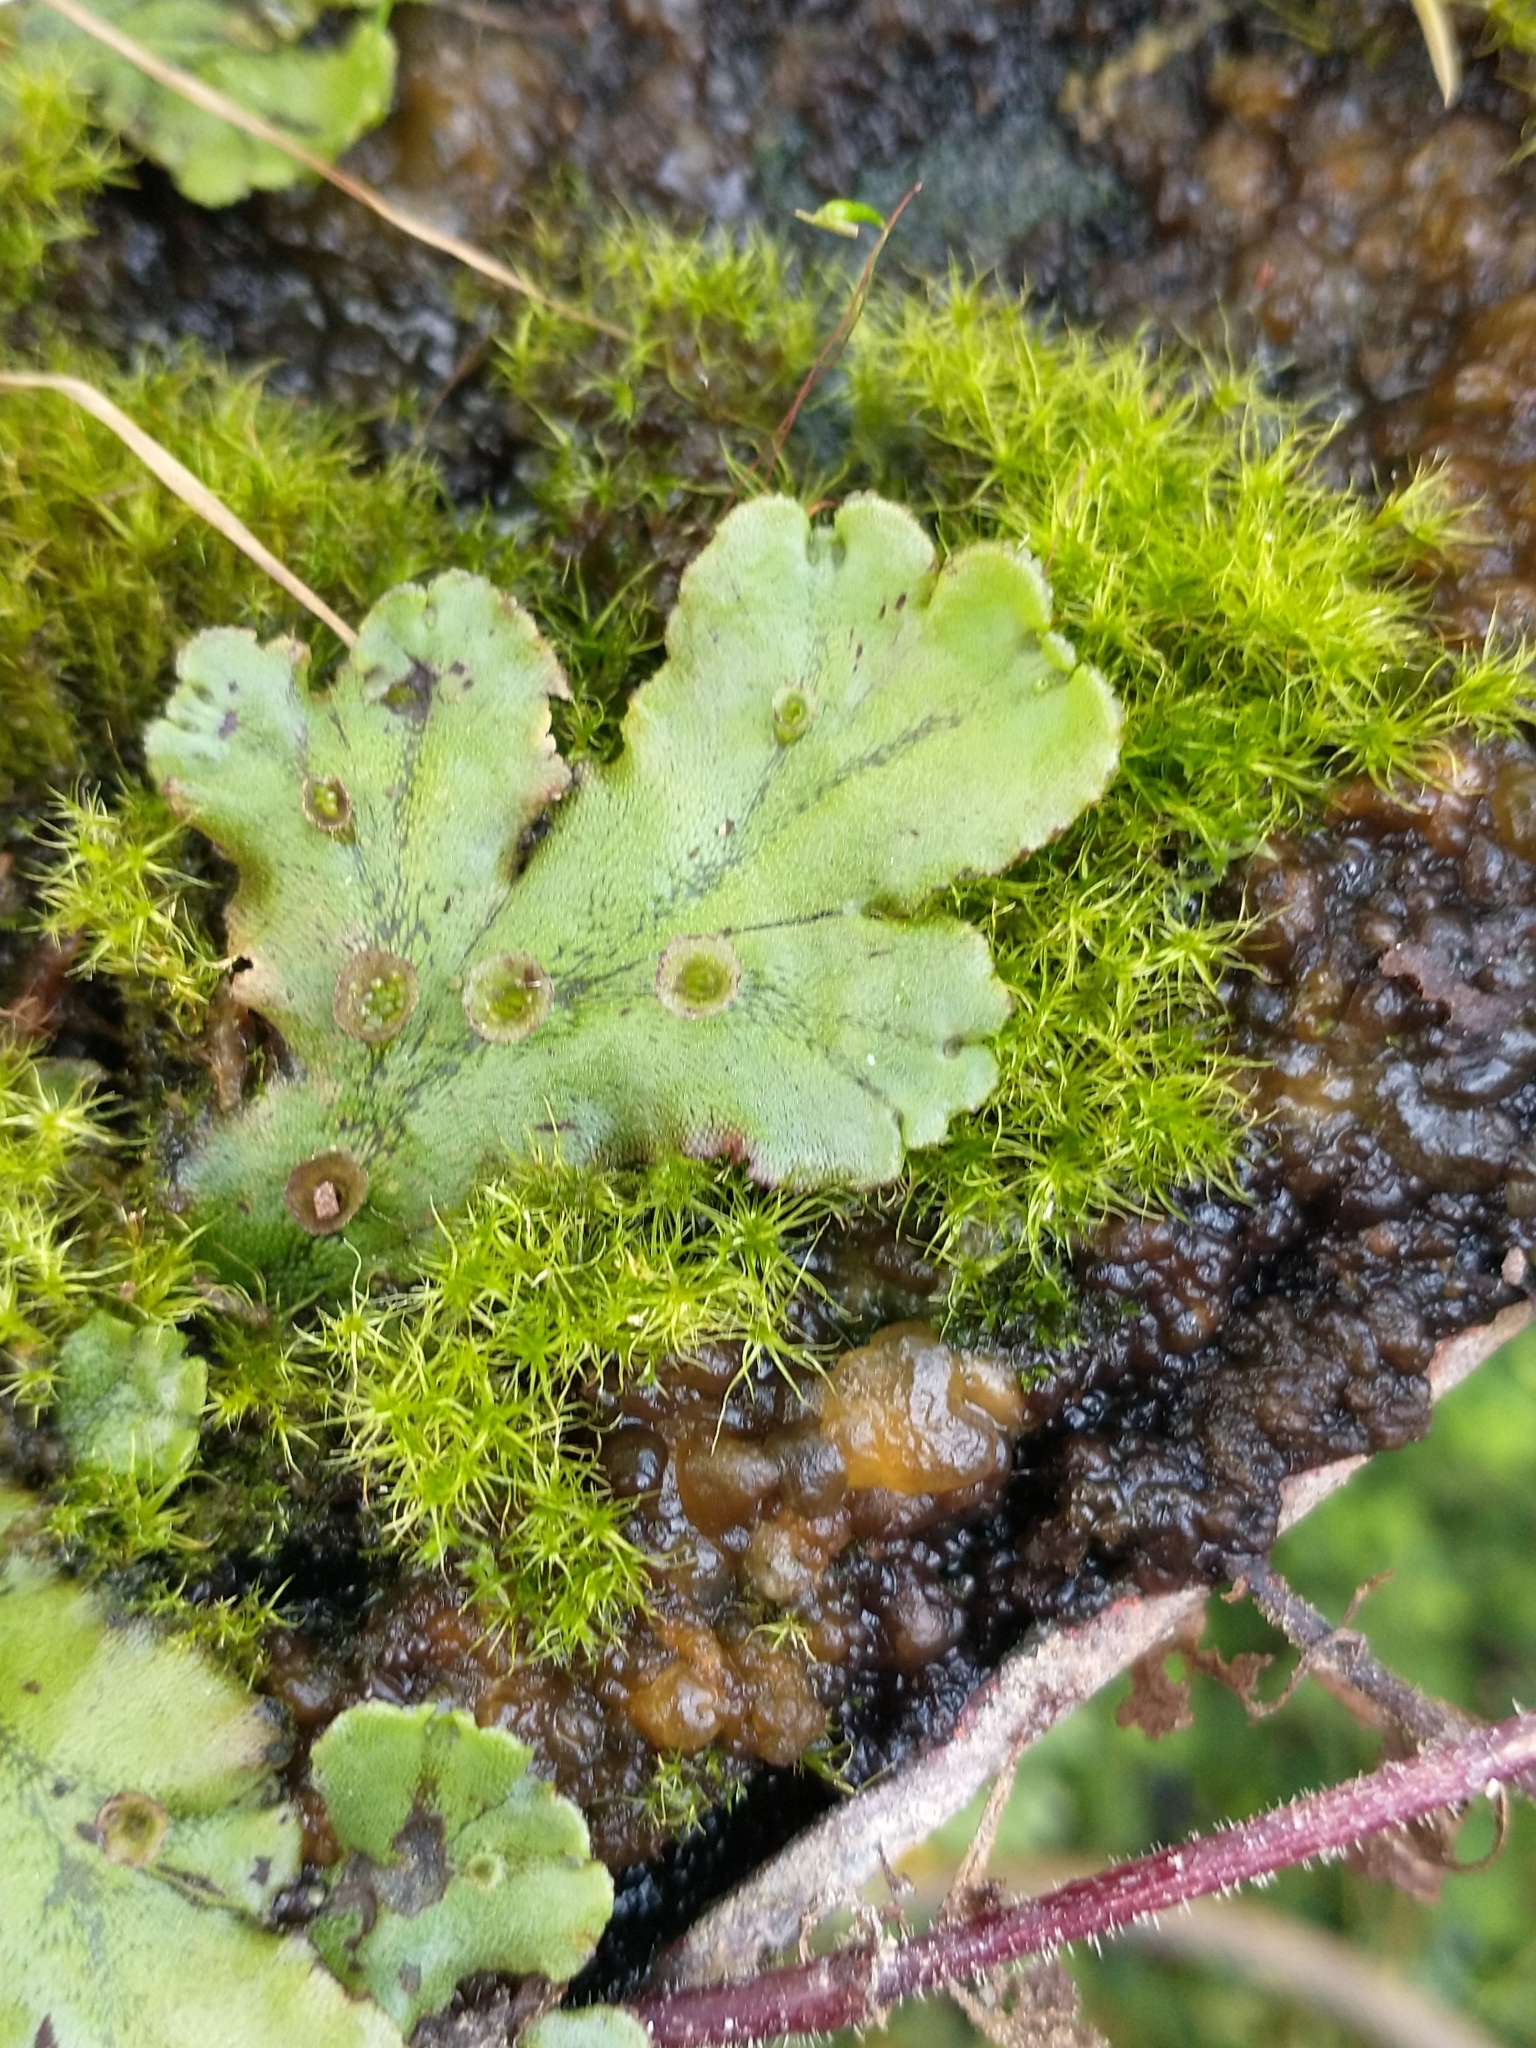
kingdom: Plantae
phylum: Marchantiophyta
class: Marchantiopsida
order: Marchantiales
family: Marchantiaceae
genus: Marchantia
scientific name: Marchantia polymorpha
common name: Common liverwort
